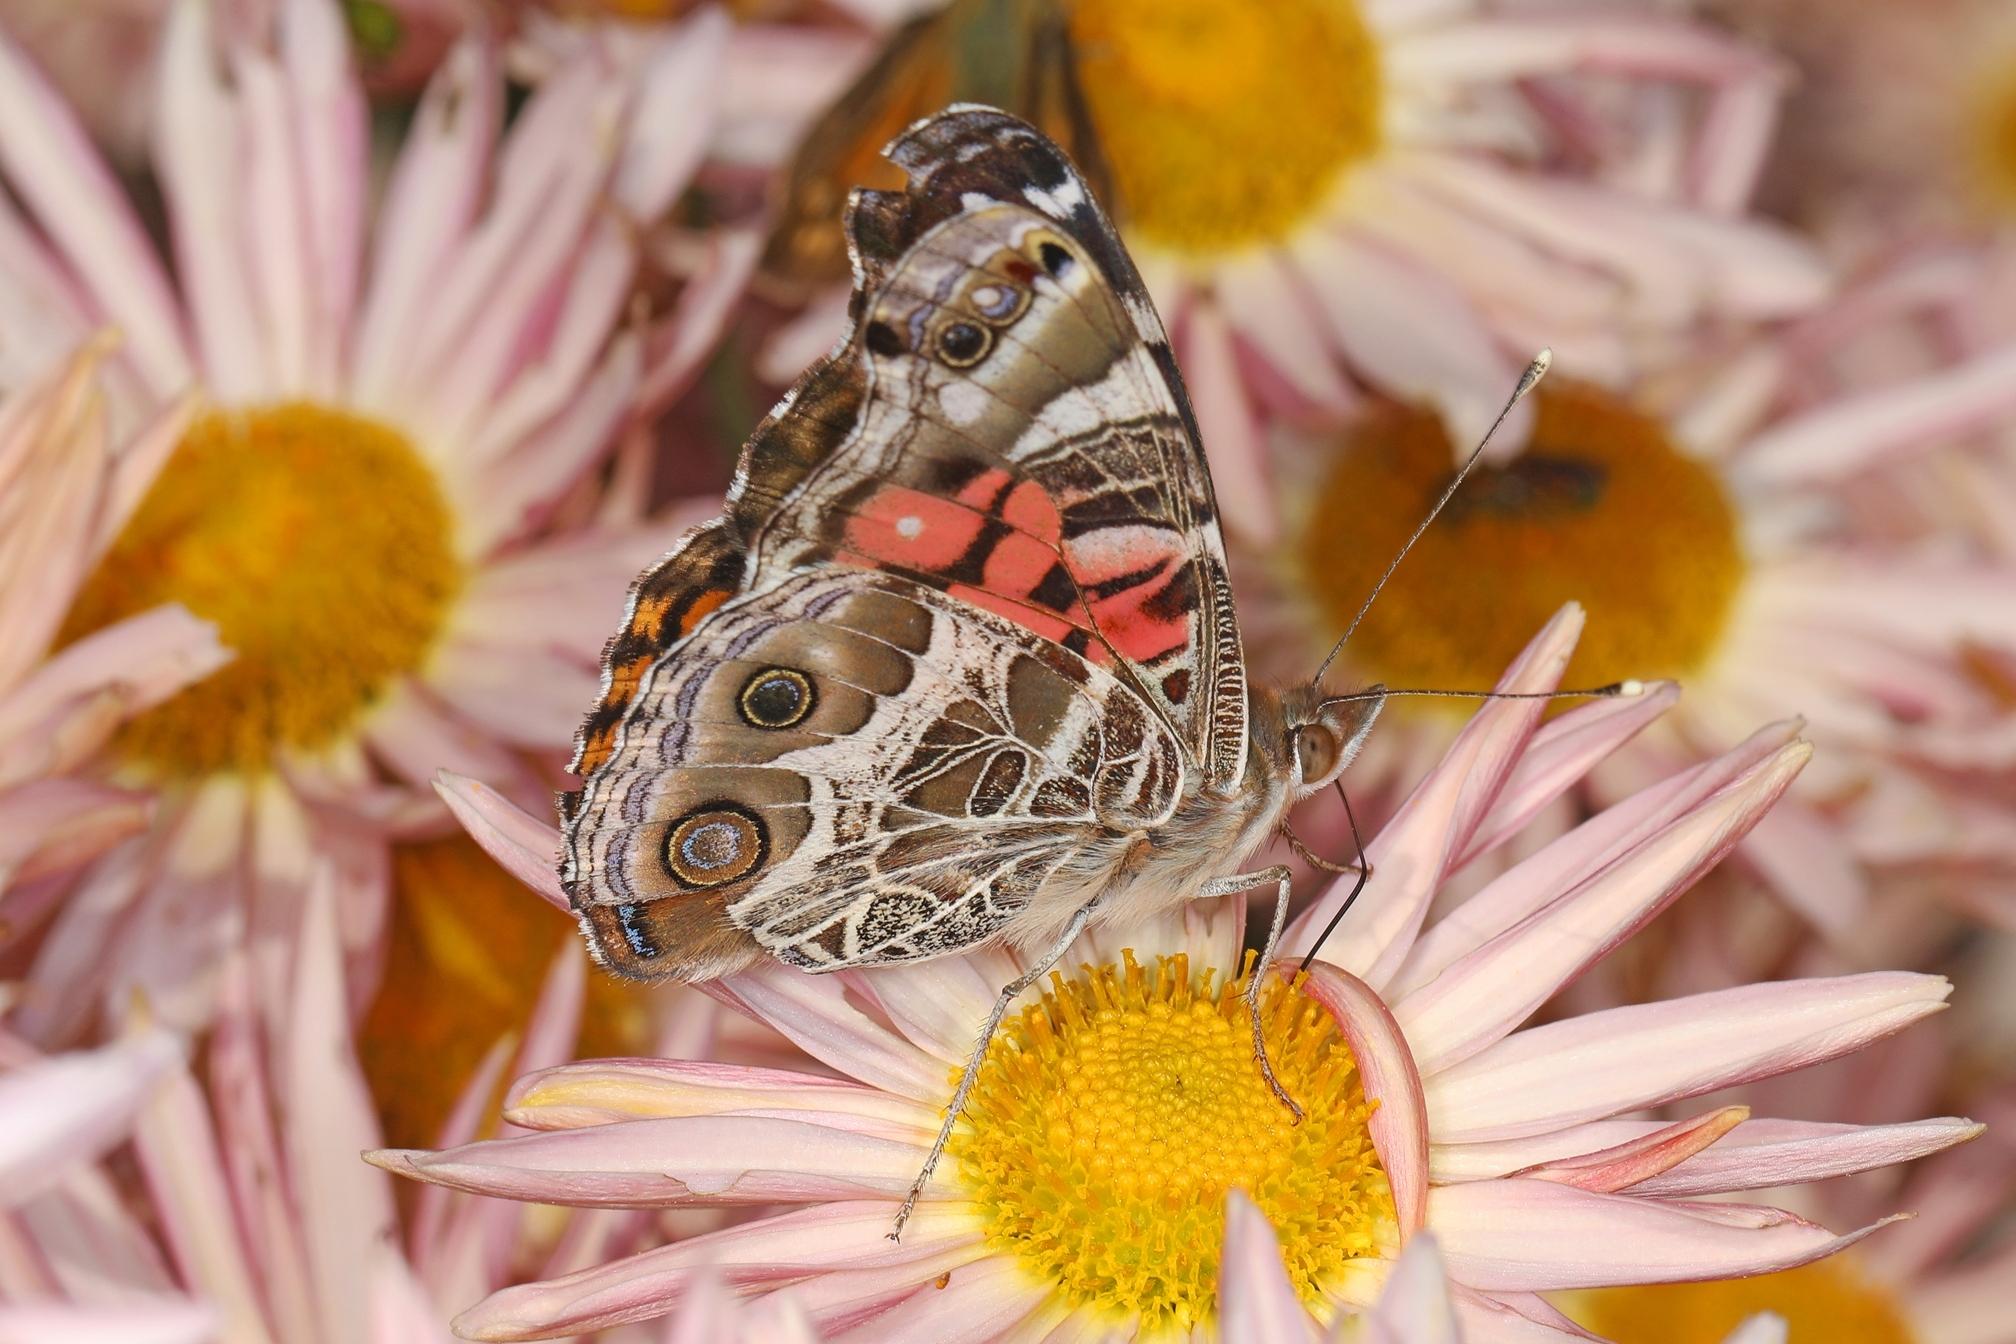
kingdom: Animalia
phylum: Arthropoda
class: Insecta
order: Lepidoptera
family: Nymphalidae
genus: Vanessa
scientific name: Vanessa virginiensis
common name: American lady
